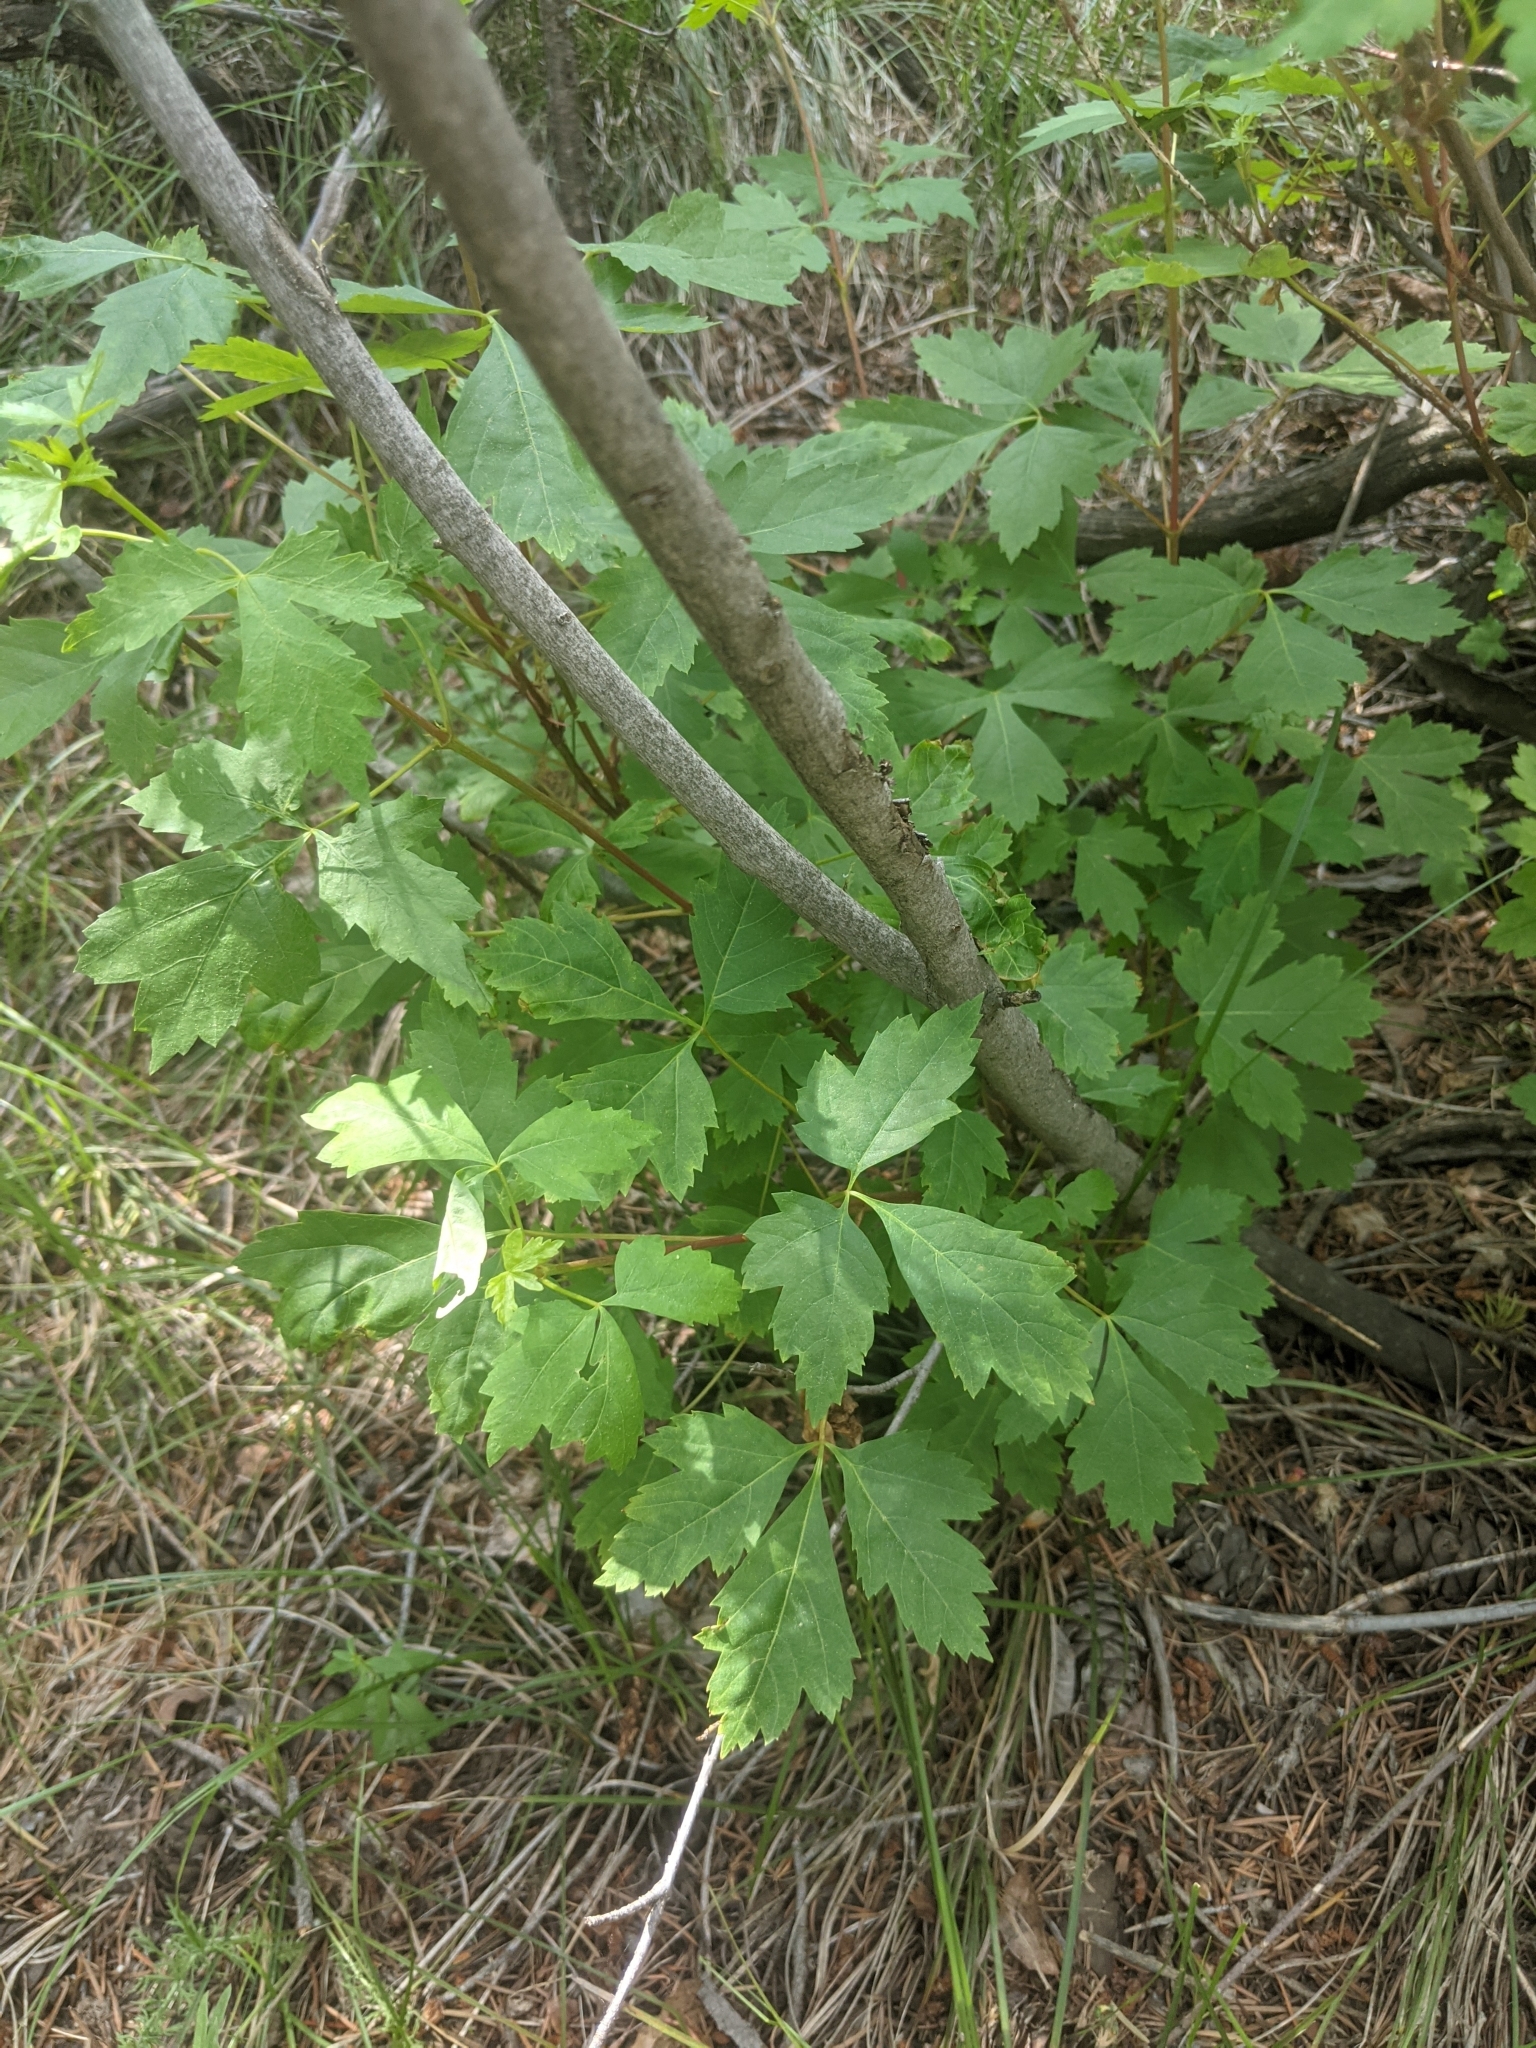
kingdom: Plantae
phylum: Tracheophyta
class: Magnoliopsida
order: Sapindales
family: Sapindaceae
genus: Acer
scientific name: Acer glabrum
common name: Rocky mountain maple
